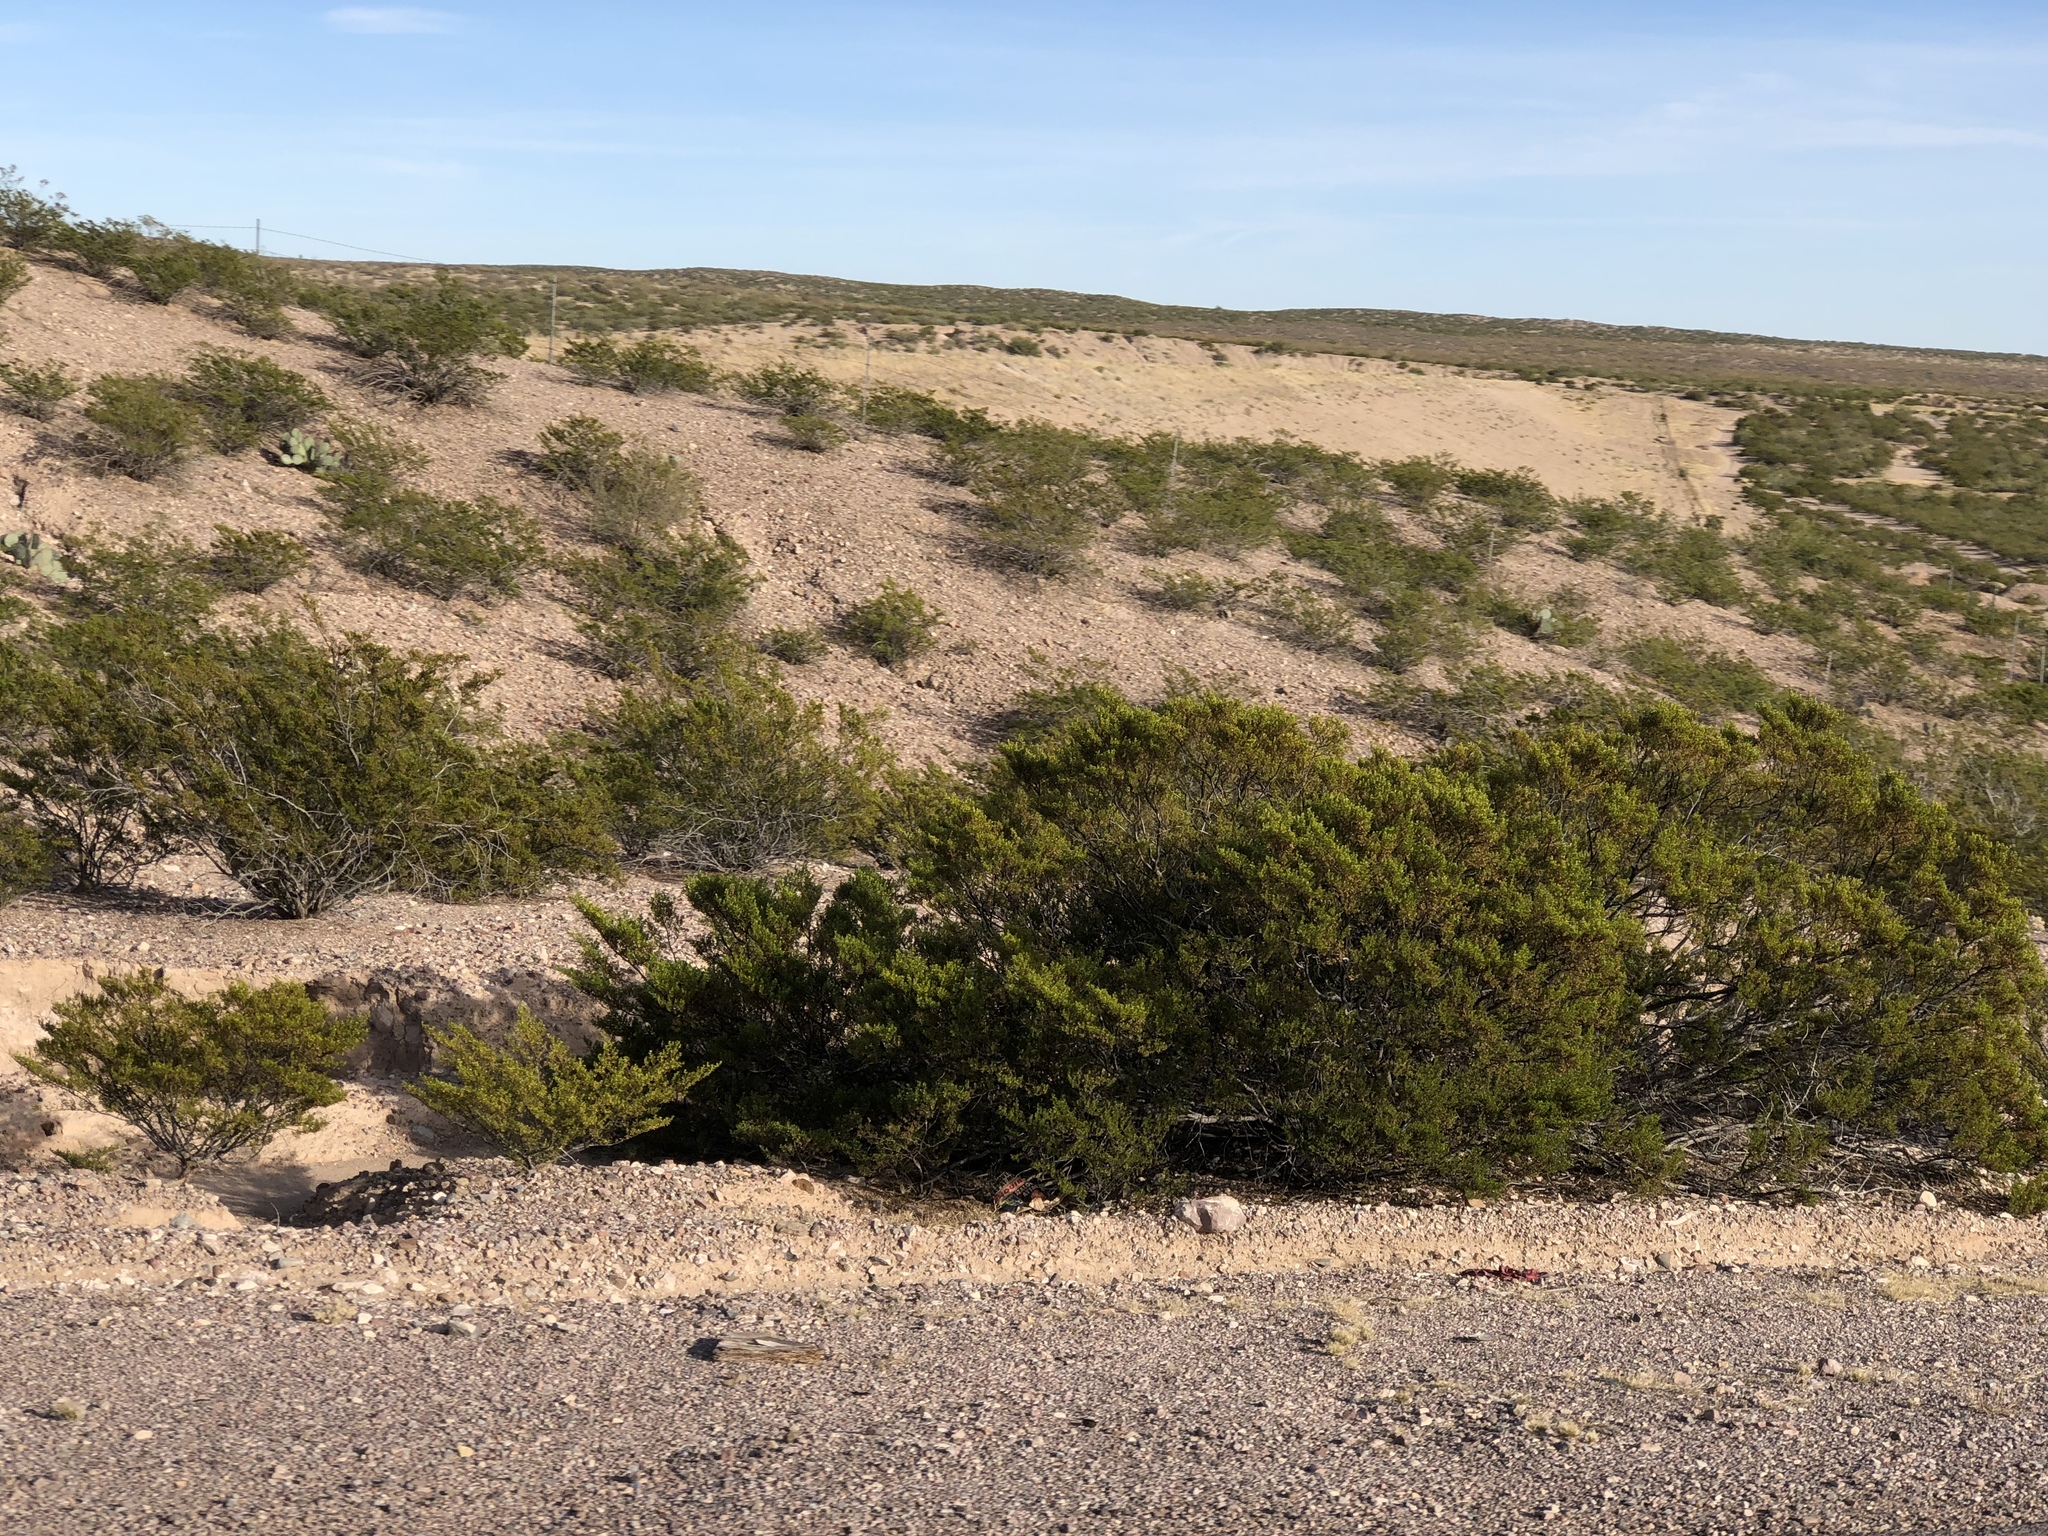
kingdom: Plantae
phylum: Tracheophyta
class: Magnoliopsida
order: Zygophyllales
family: Zygophyllaceae
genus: Larrea
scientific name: Larrea tridentata
